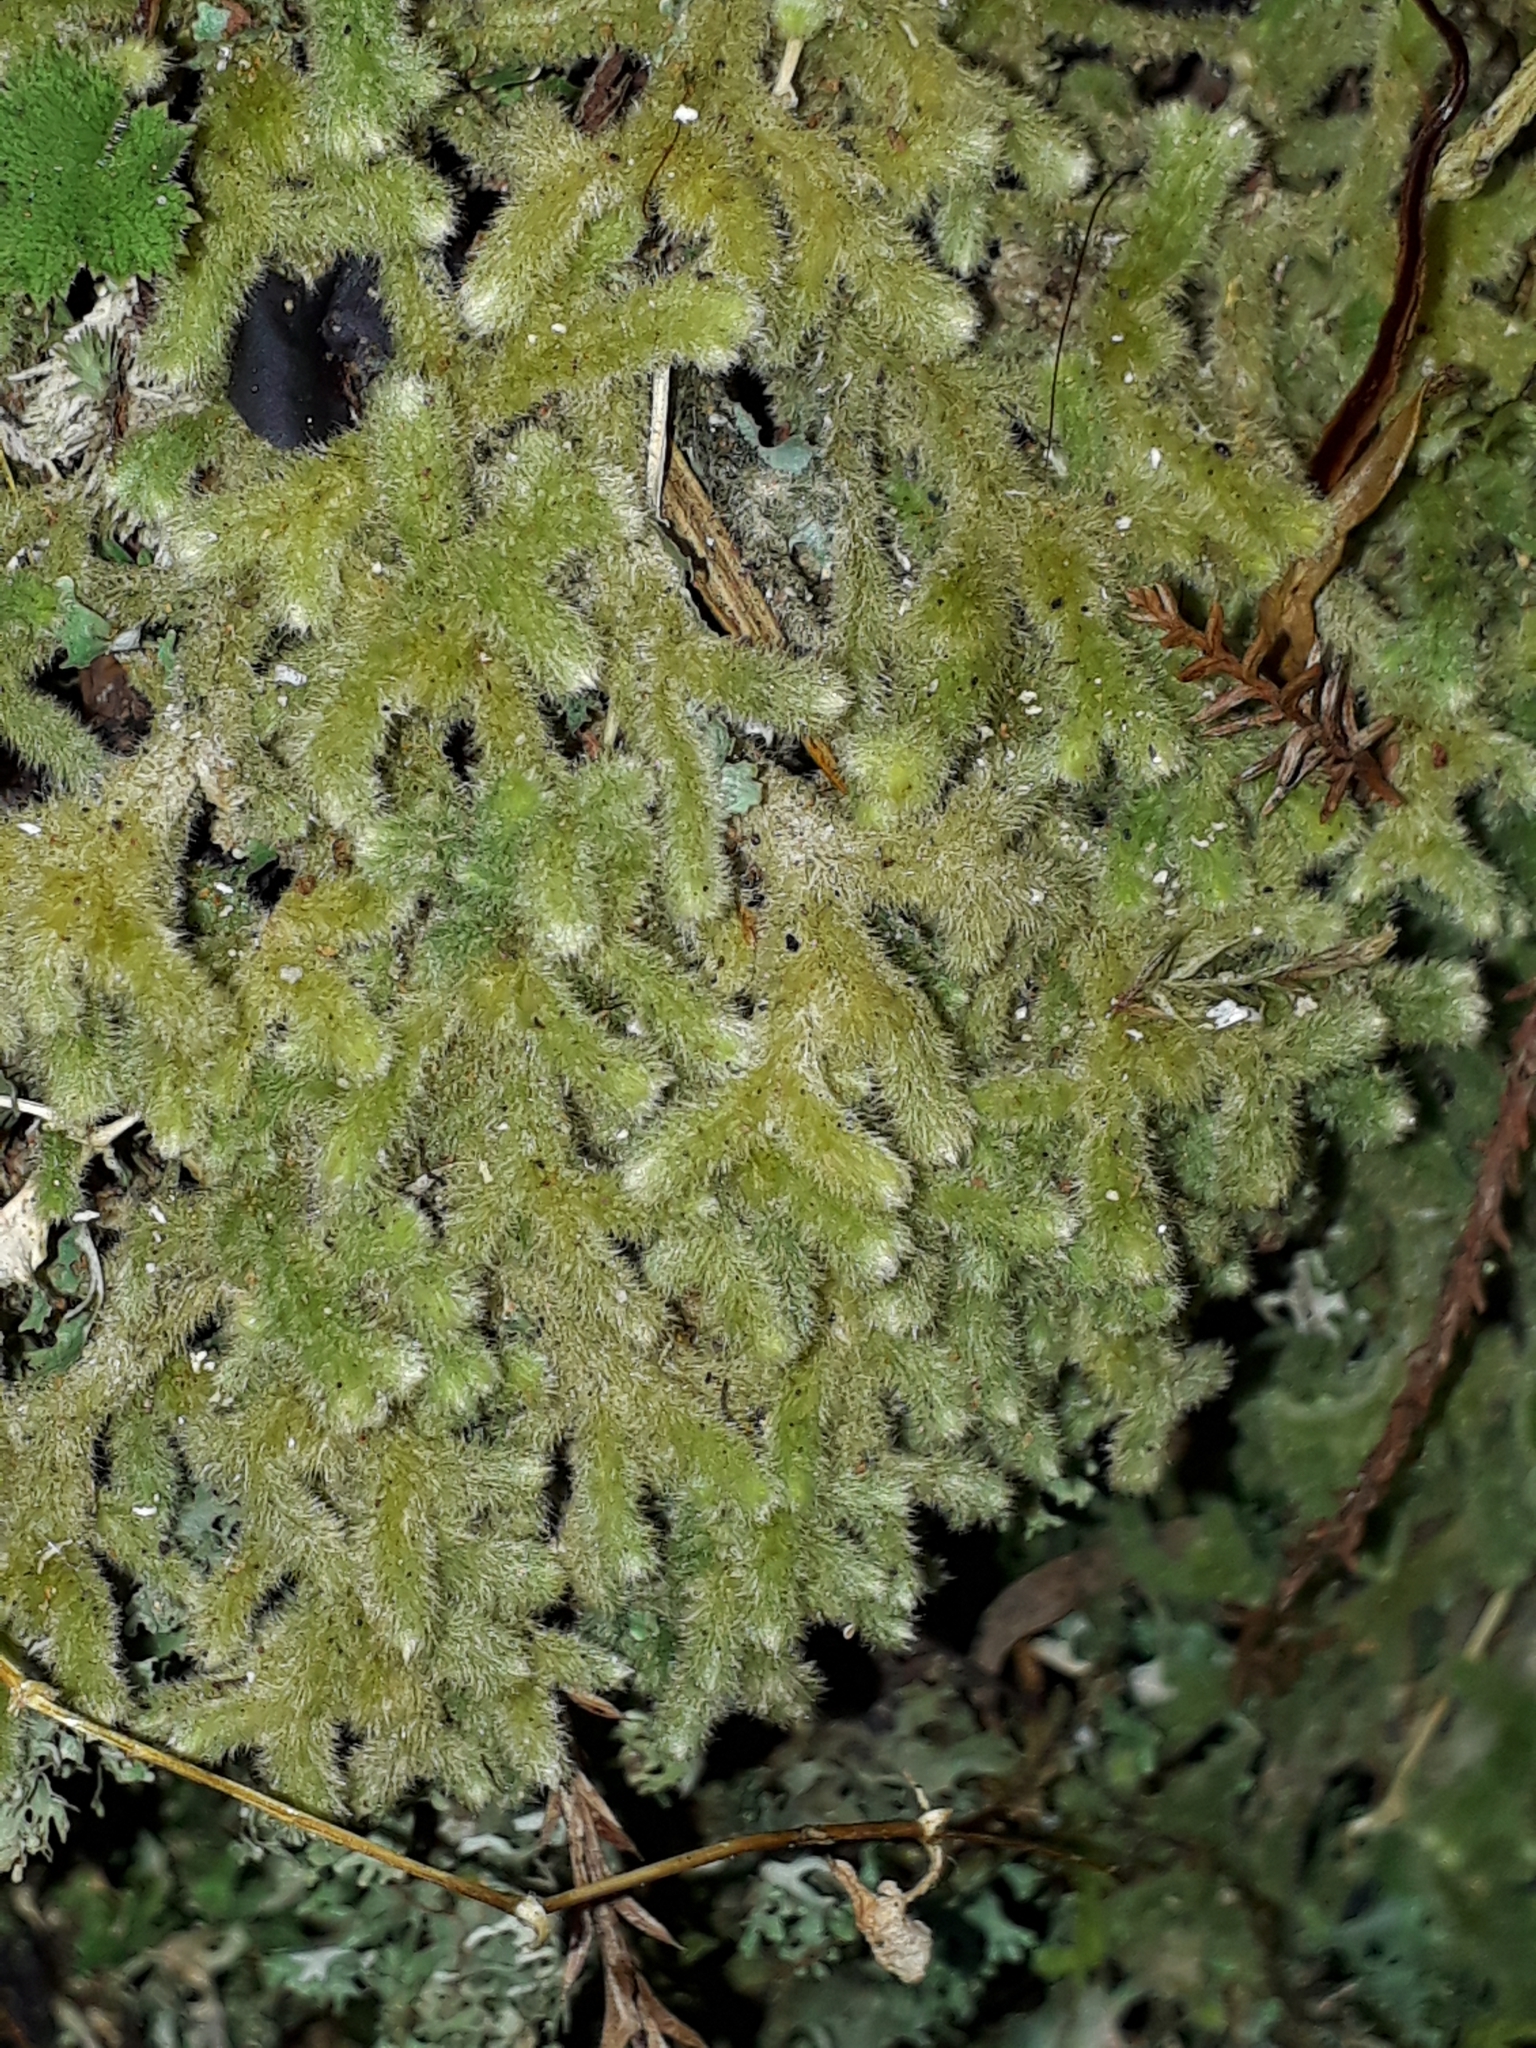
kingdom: Plantae
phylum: Marchantiophyta
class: Jungermanniopsida
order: Jungermanniales
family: Trichocoleaceae
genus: Leiomitra
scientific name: Leiomitra lanata
